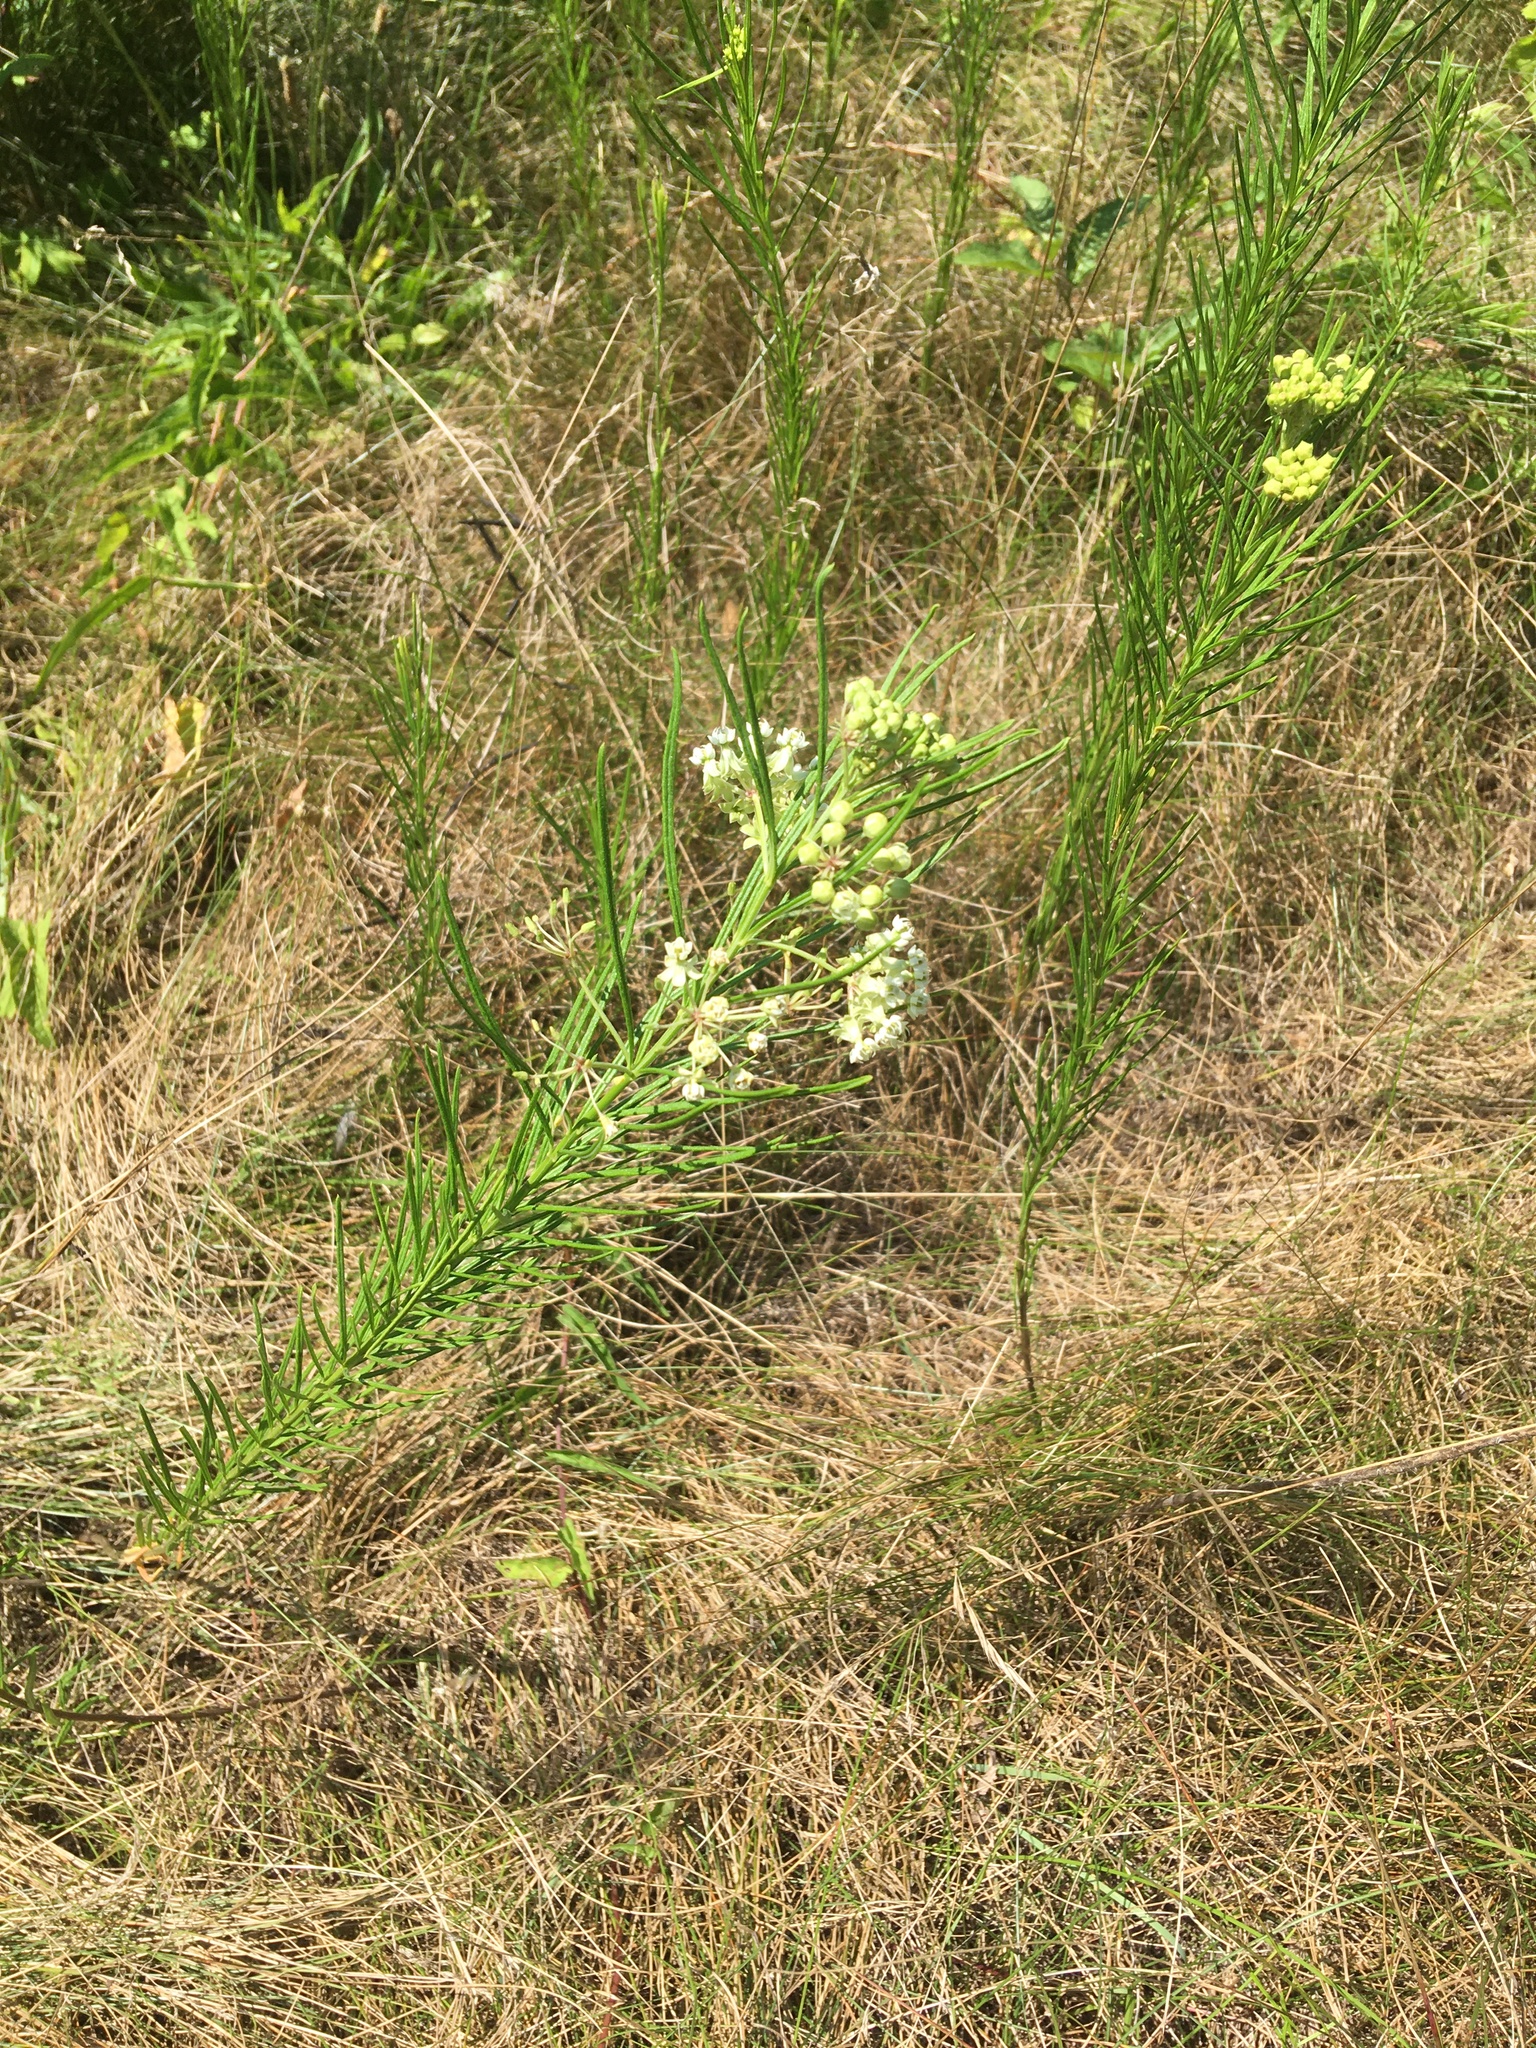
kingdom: Plantae
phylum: Tracheophyta
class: Magnoliopsida
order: Gentianales
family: Apocynaceae
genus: Asclepias
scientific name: Asclepias verticillata
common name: Eastern whorled milkweed
